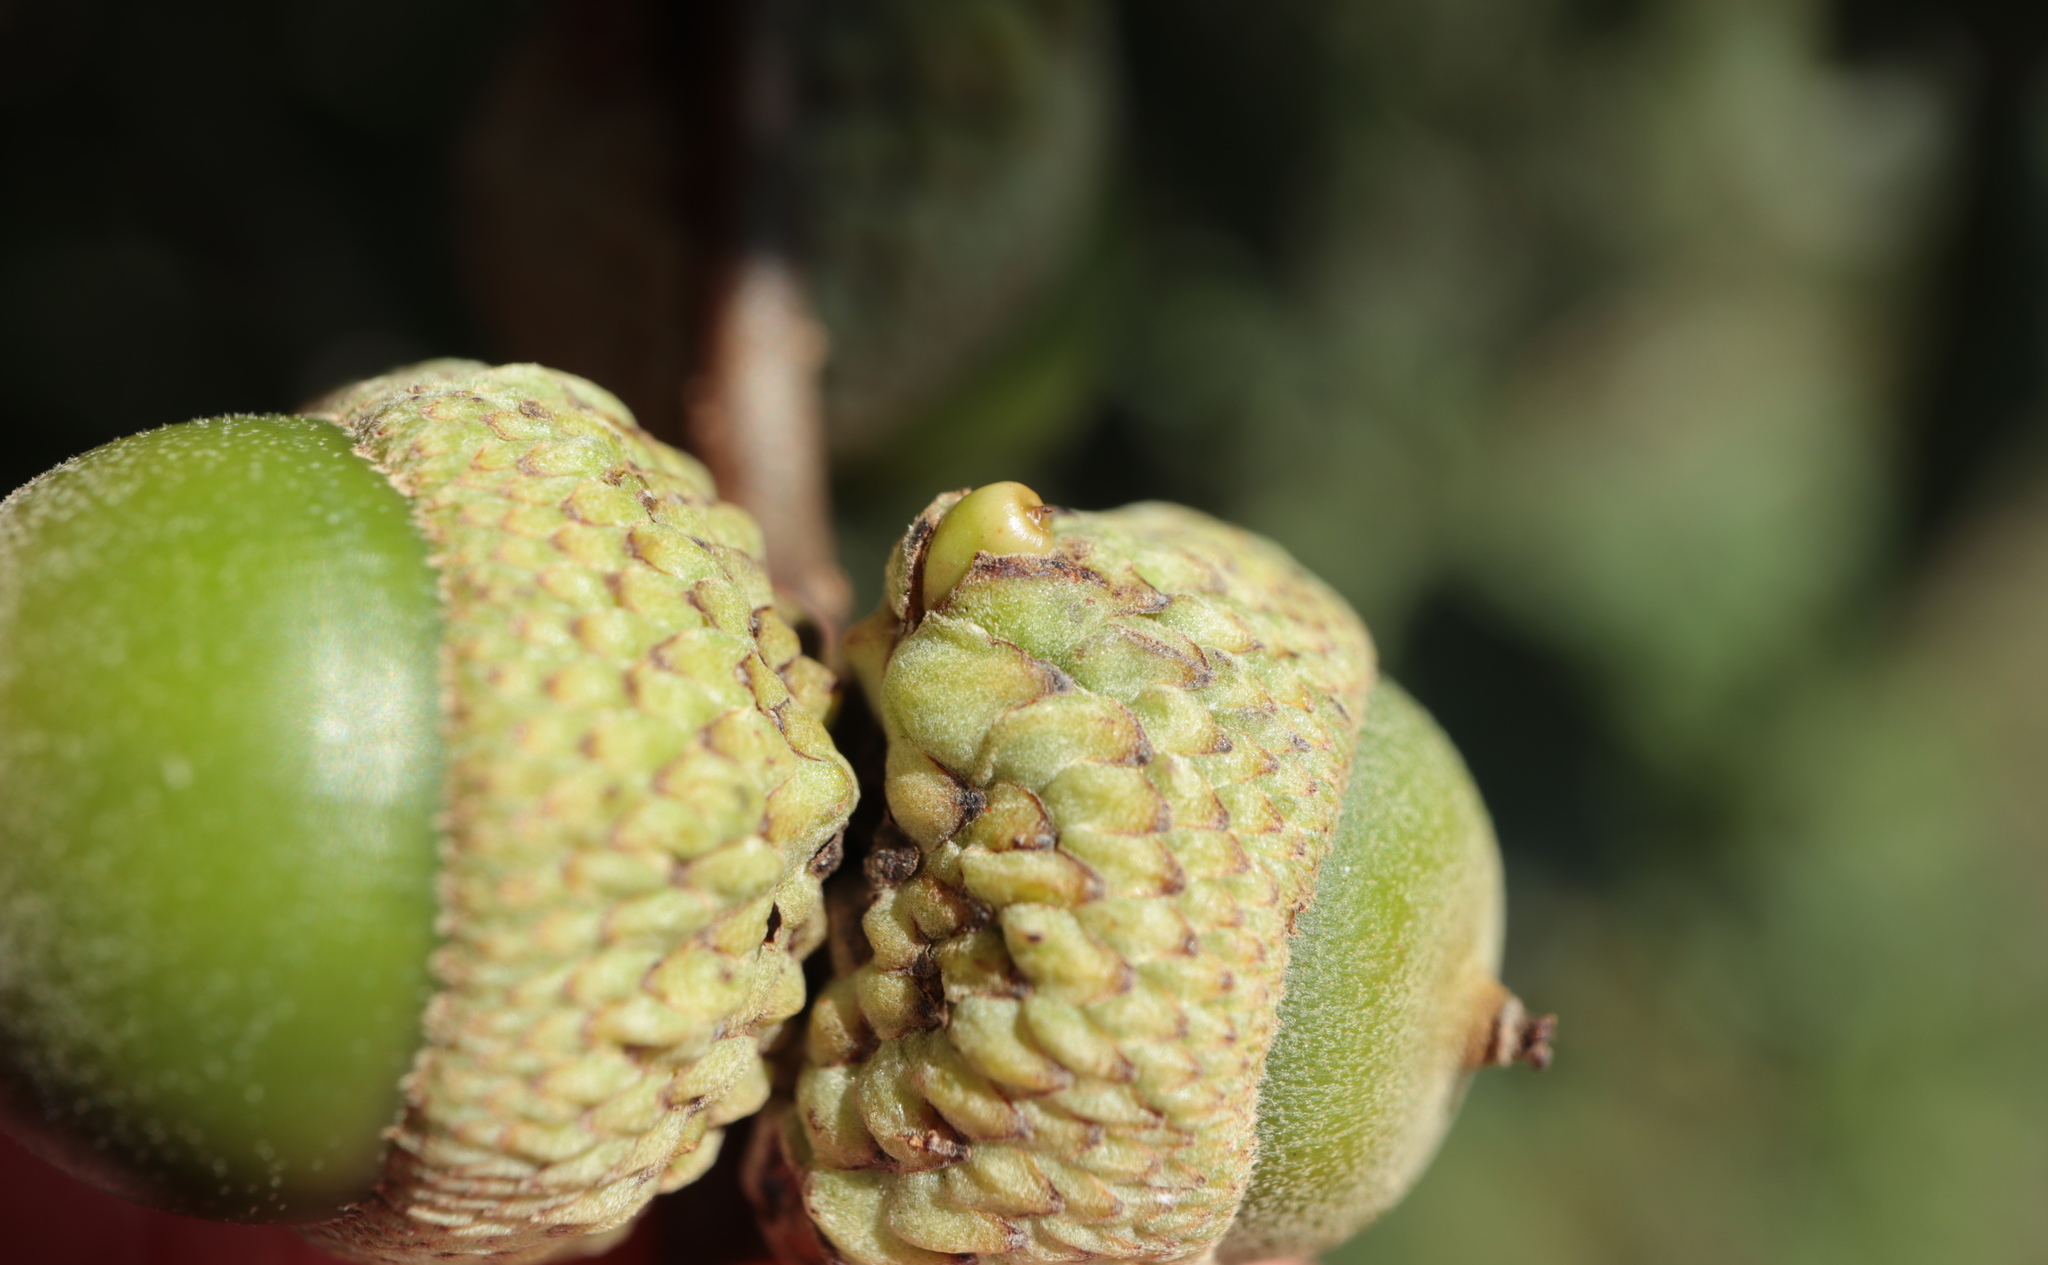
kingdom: Animalia
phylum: Arthropoda
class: Insecta
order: Hymenoptera
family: Cynipidae
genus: Callirhytis
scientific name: Callirhytis glandium
